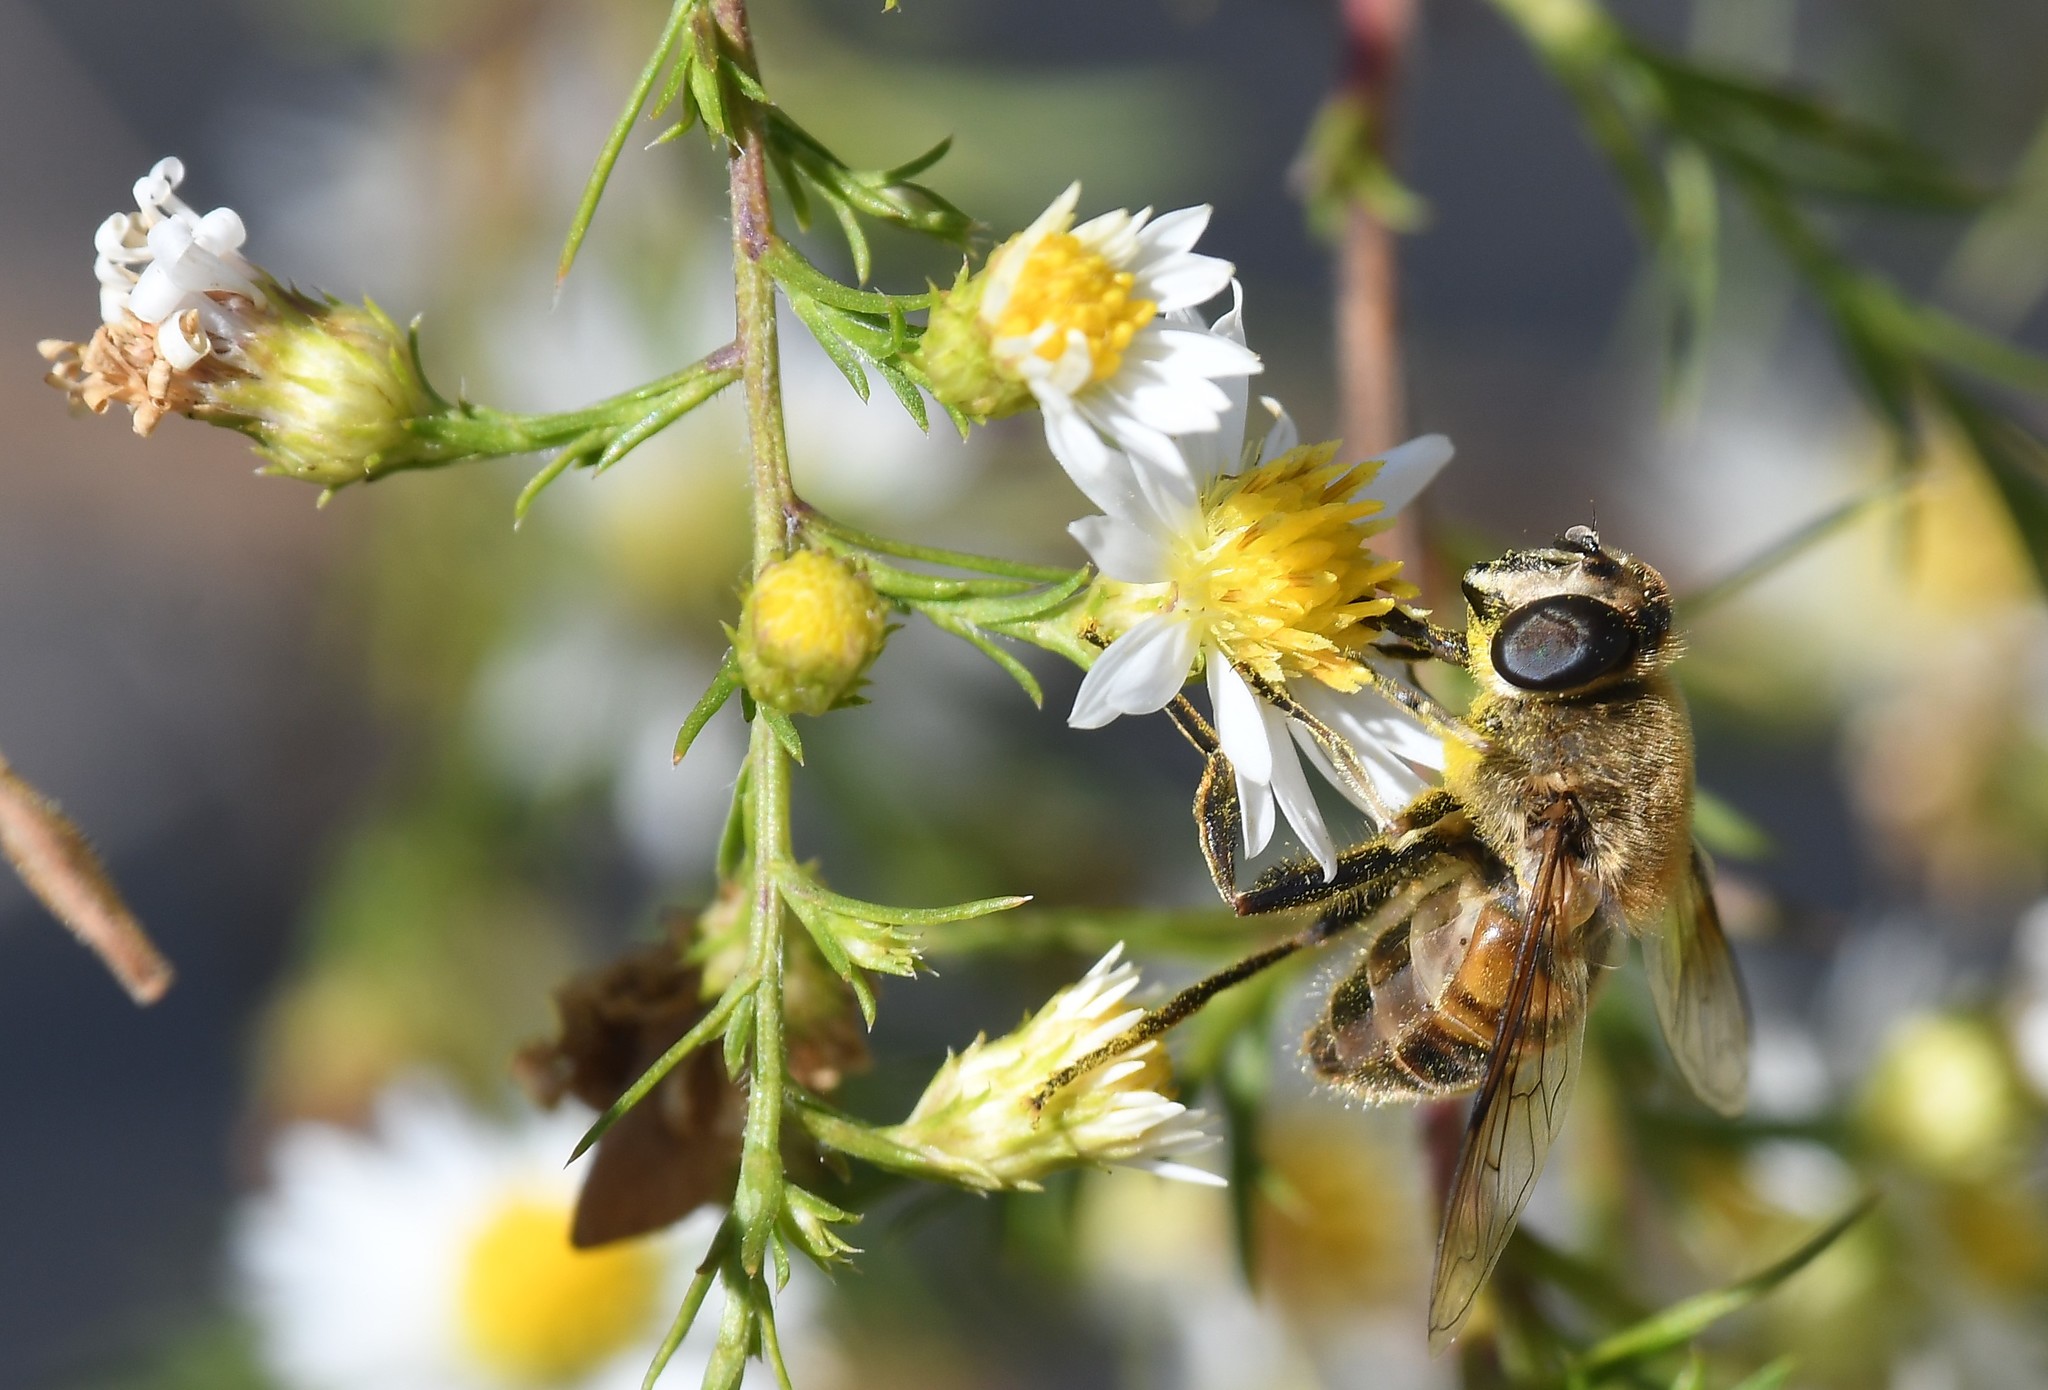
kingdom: Animalia
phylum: Arthropoda
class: Insecta
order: Diptera
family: Syrphidae
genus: Eristalis
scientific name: Eristalis tenax
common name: Drone fly
